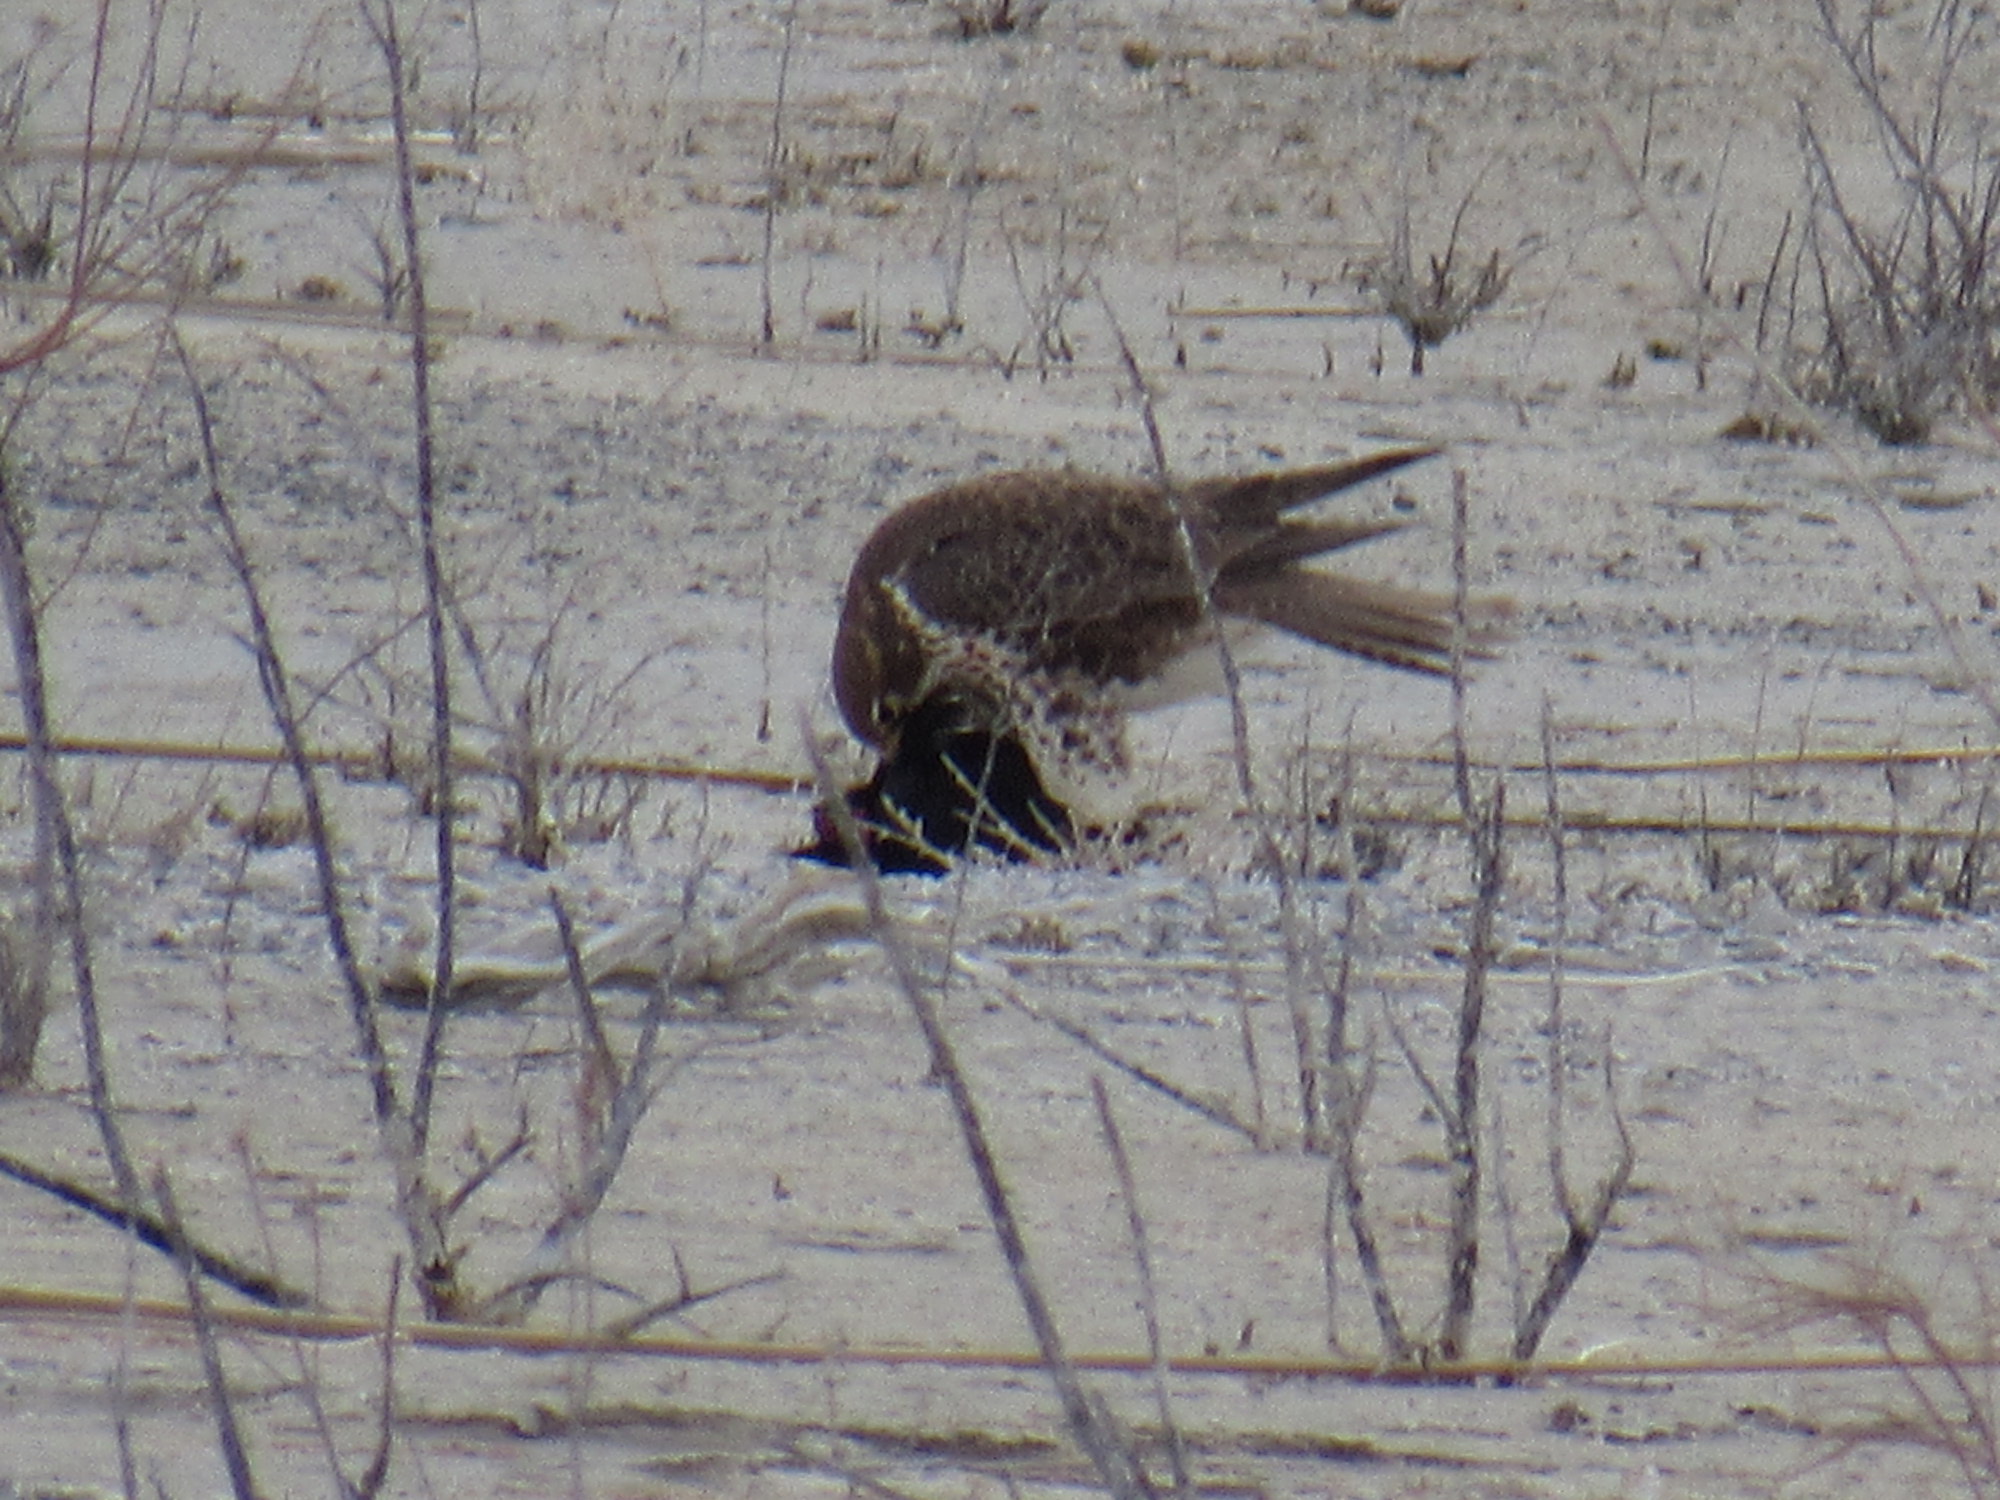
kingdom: Animalia
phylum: Chordata
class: Aves
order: Falconiformes
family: Falconidae
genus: Falco
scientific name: Falco mexicanus
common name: Prairie falcon
